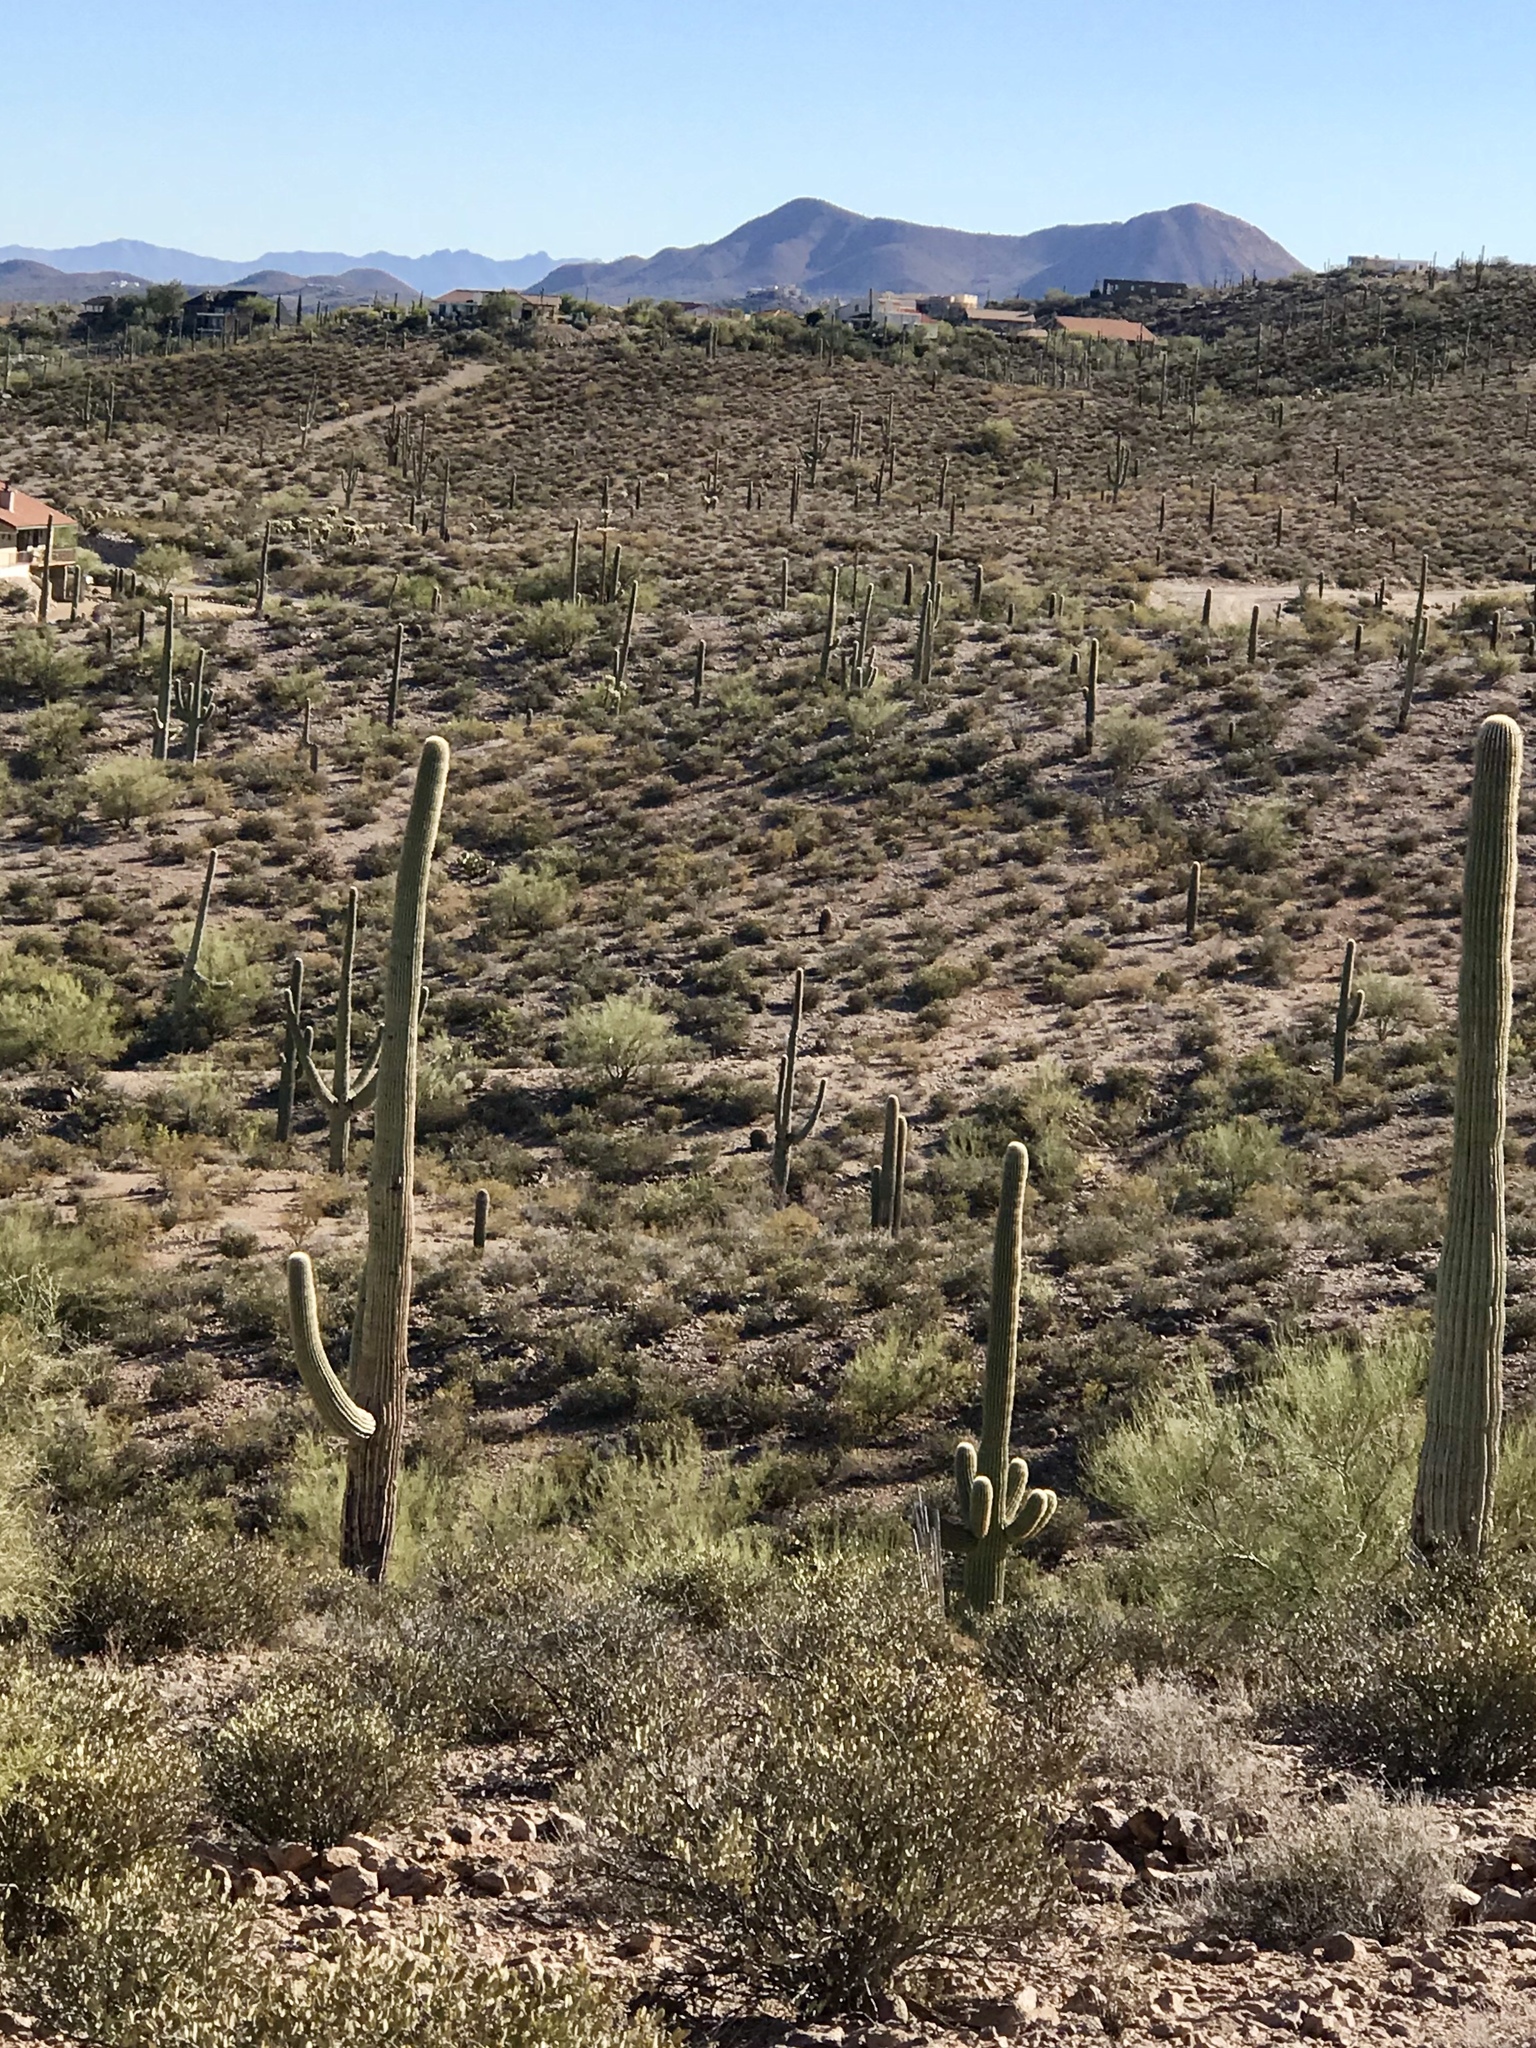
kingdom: Plantae
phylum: Tracheophyta
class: Magnoliopsida
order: Caryophyllales
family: Cactaceae
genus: Carnegiea
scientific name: Carnegiea gigantea
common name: Saguaro
